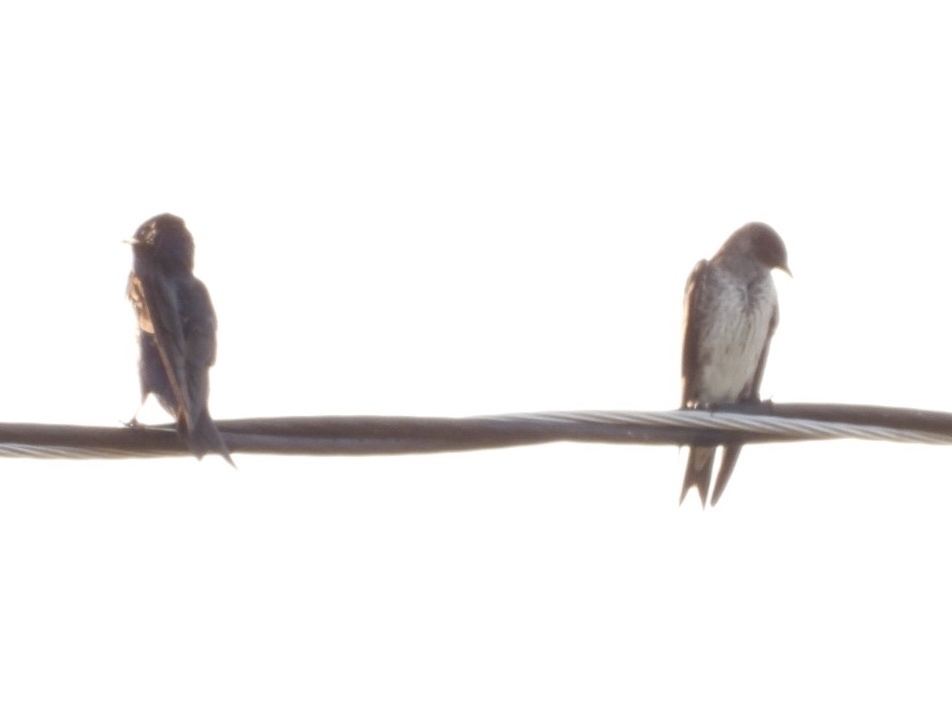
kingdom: Animalia
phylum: Chordata
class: Aves
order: Passeriformes
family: Hirundinidae
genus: Progne
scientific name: Progne subis
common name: Purple martin
